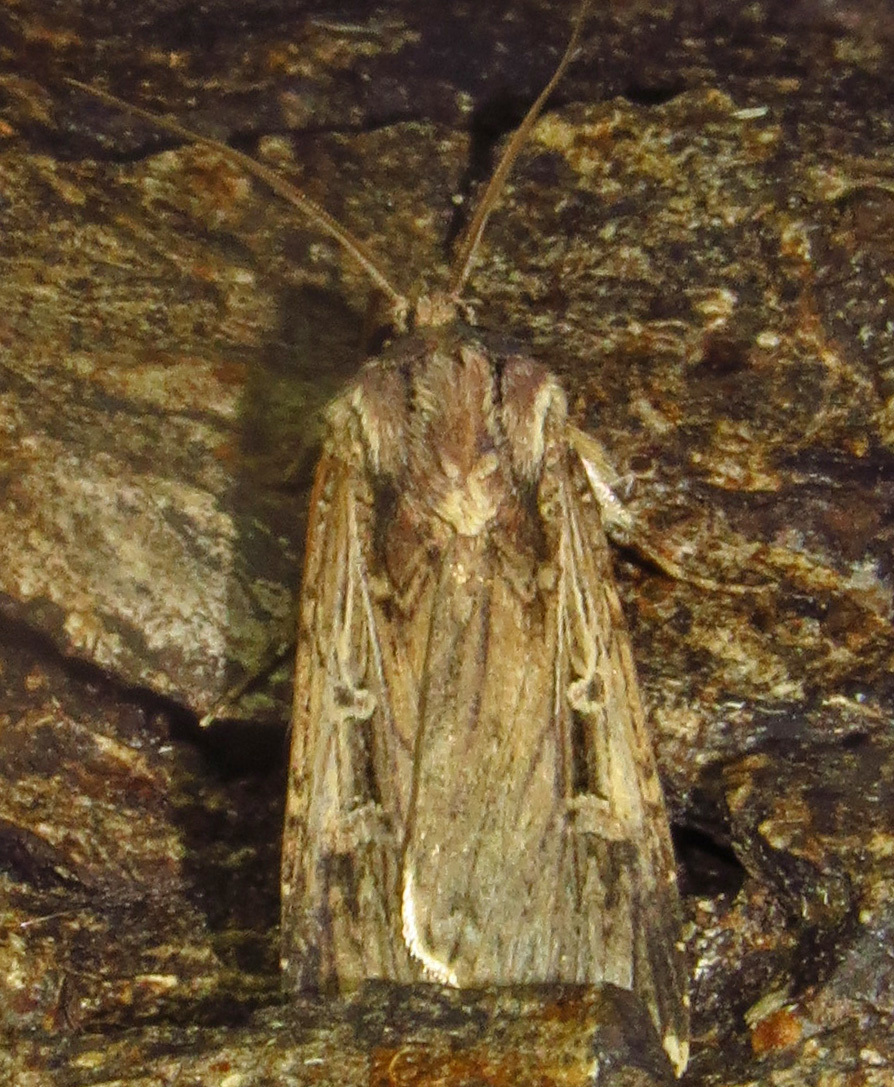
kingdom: Animalia
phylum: Arthropoda
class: Insecta
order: Lepidoptera
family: Noctuidae
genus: Feltia
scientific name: Feltia subterranea
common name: Granulate cutworm
